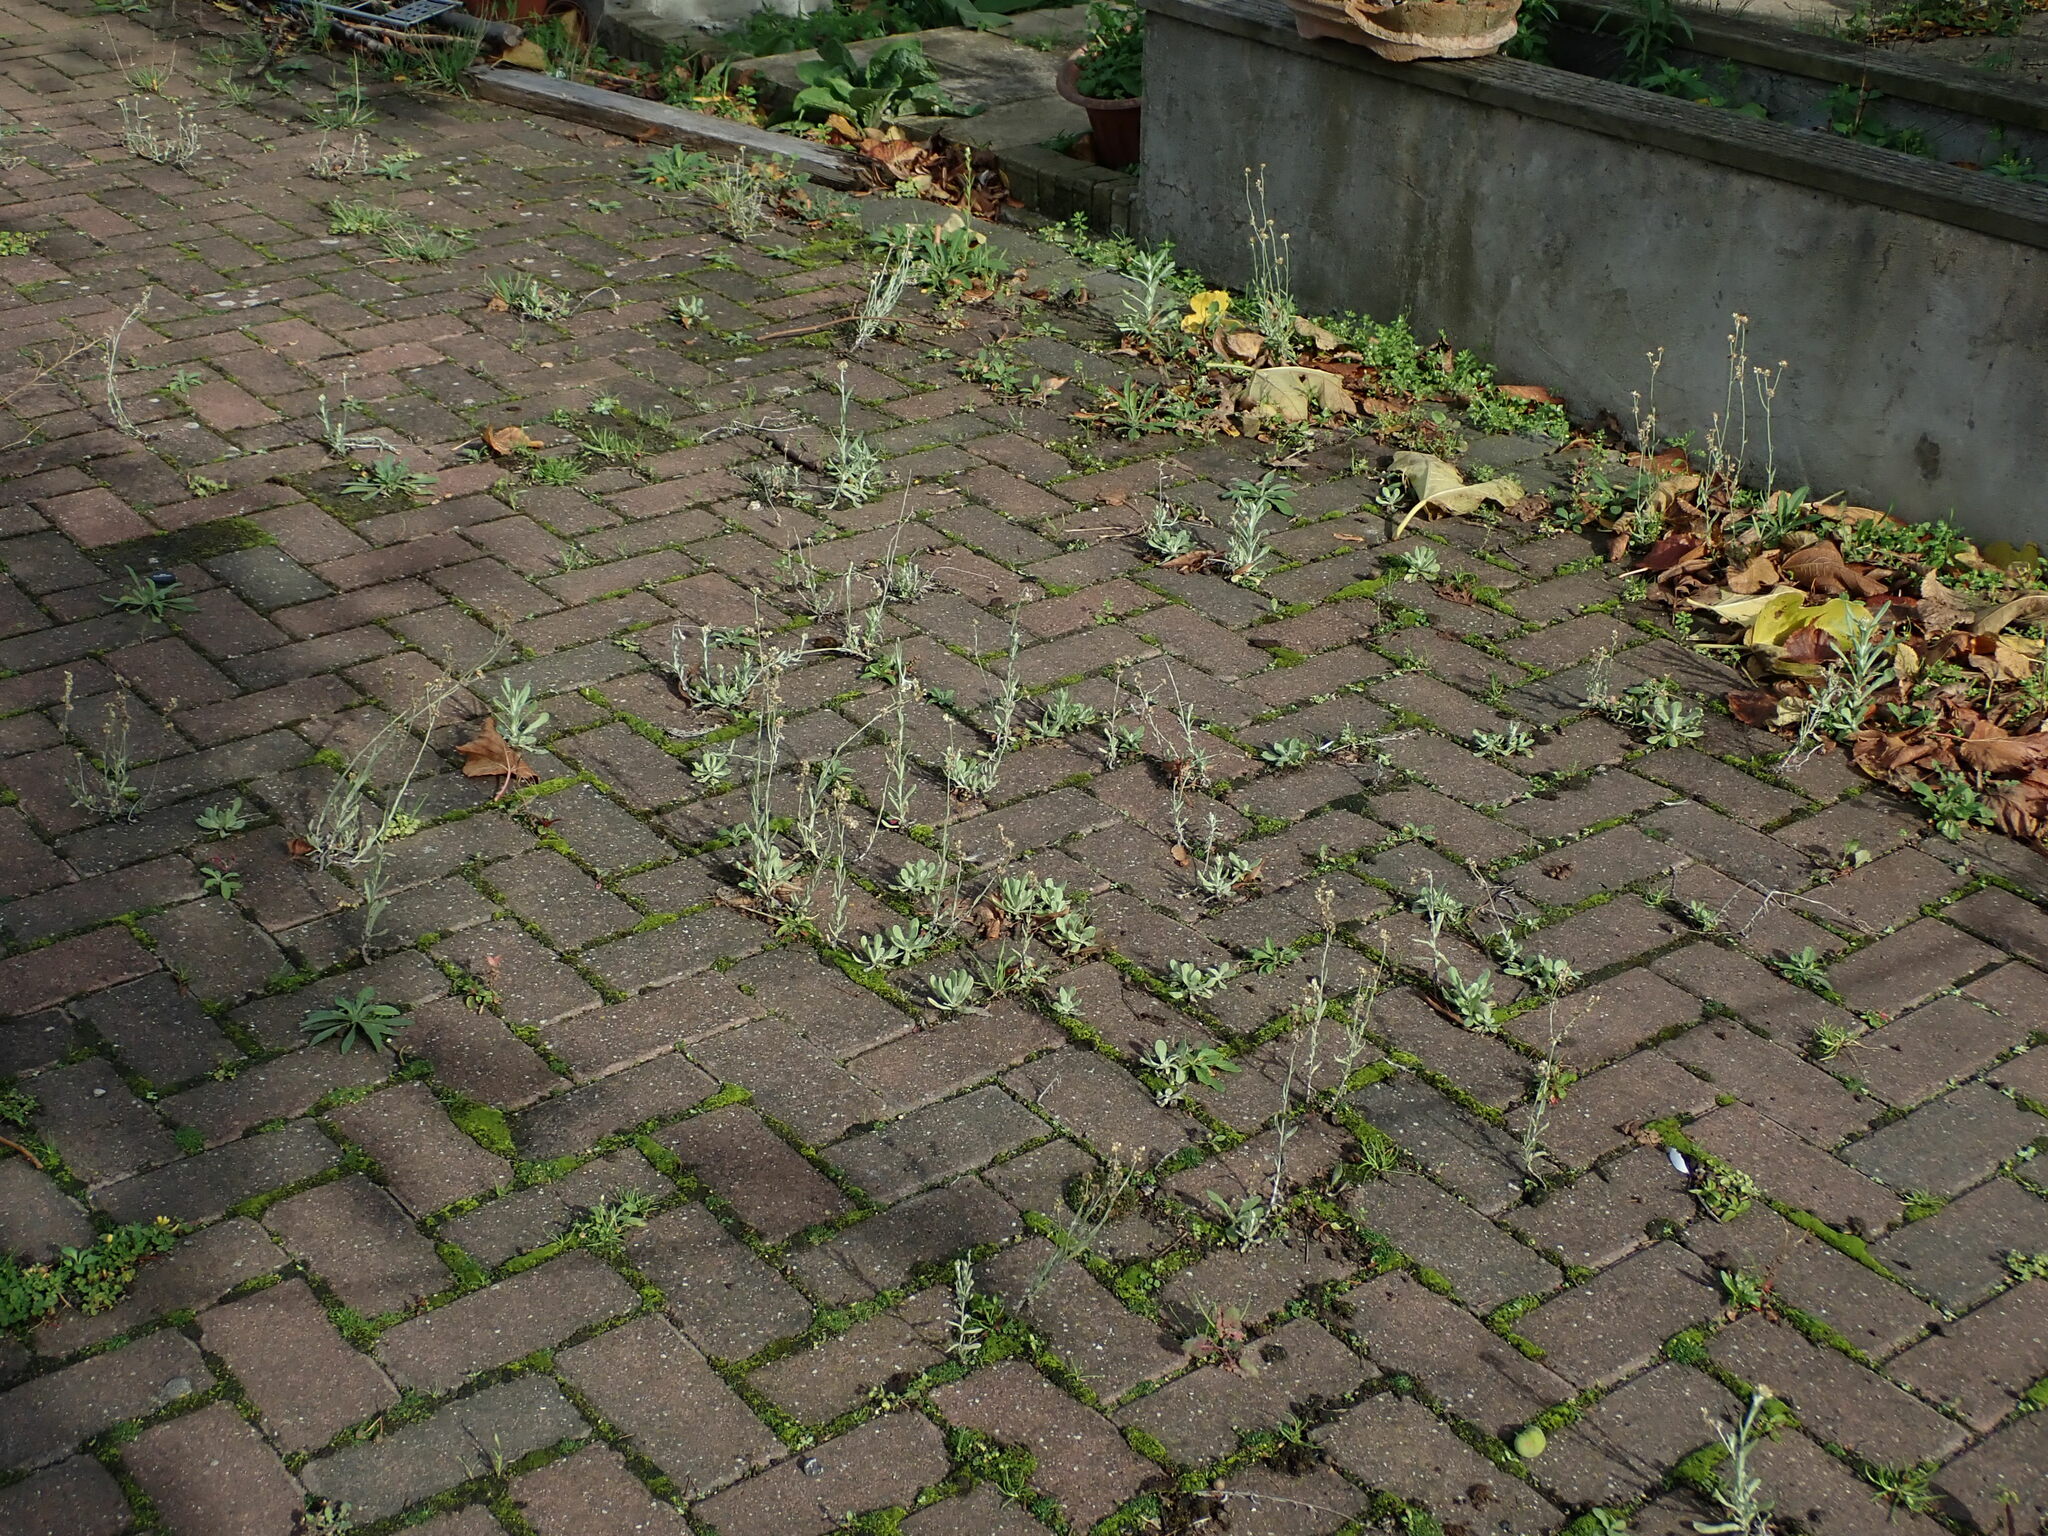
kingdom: Plantae
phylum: Tracheophyta
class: Magnoliopsida
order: Asterales
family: Asteraceae
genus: Helichrysum
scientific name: Helichrysum luteoalbum
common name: Daisy
